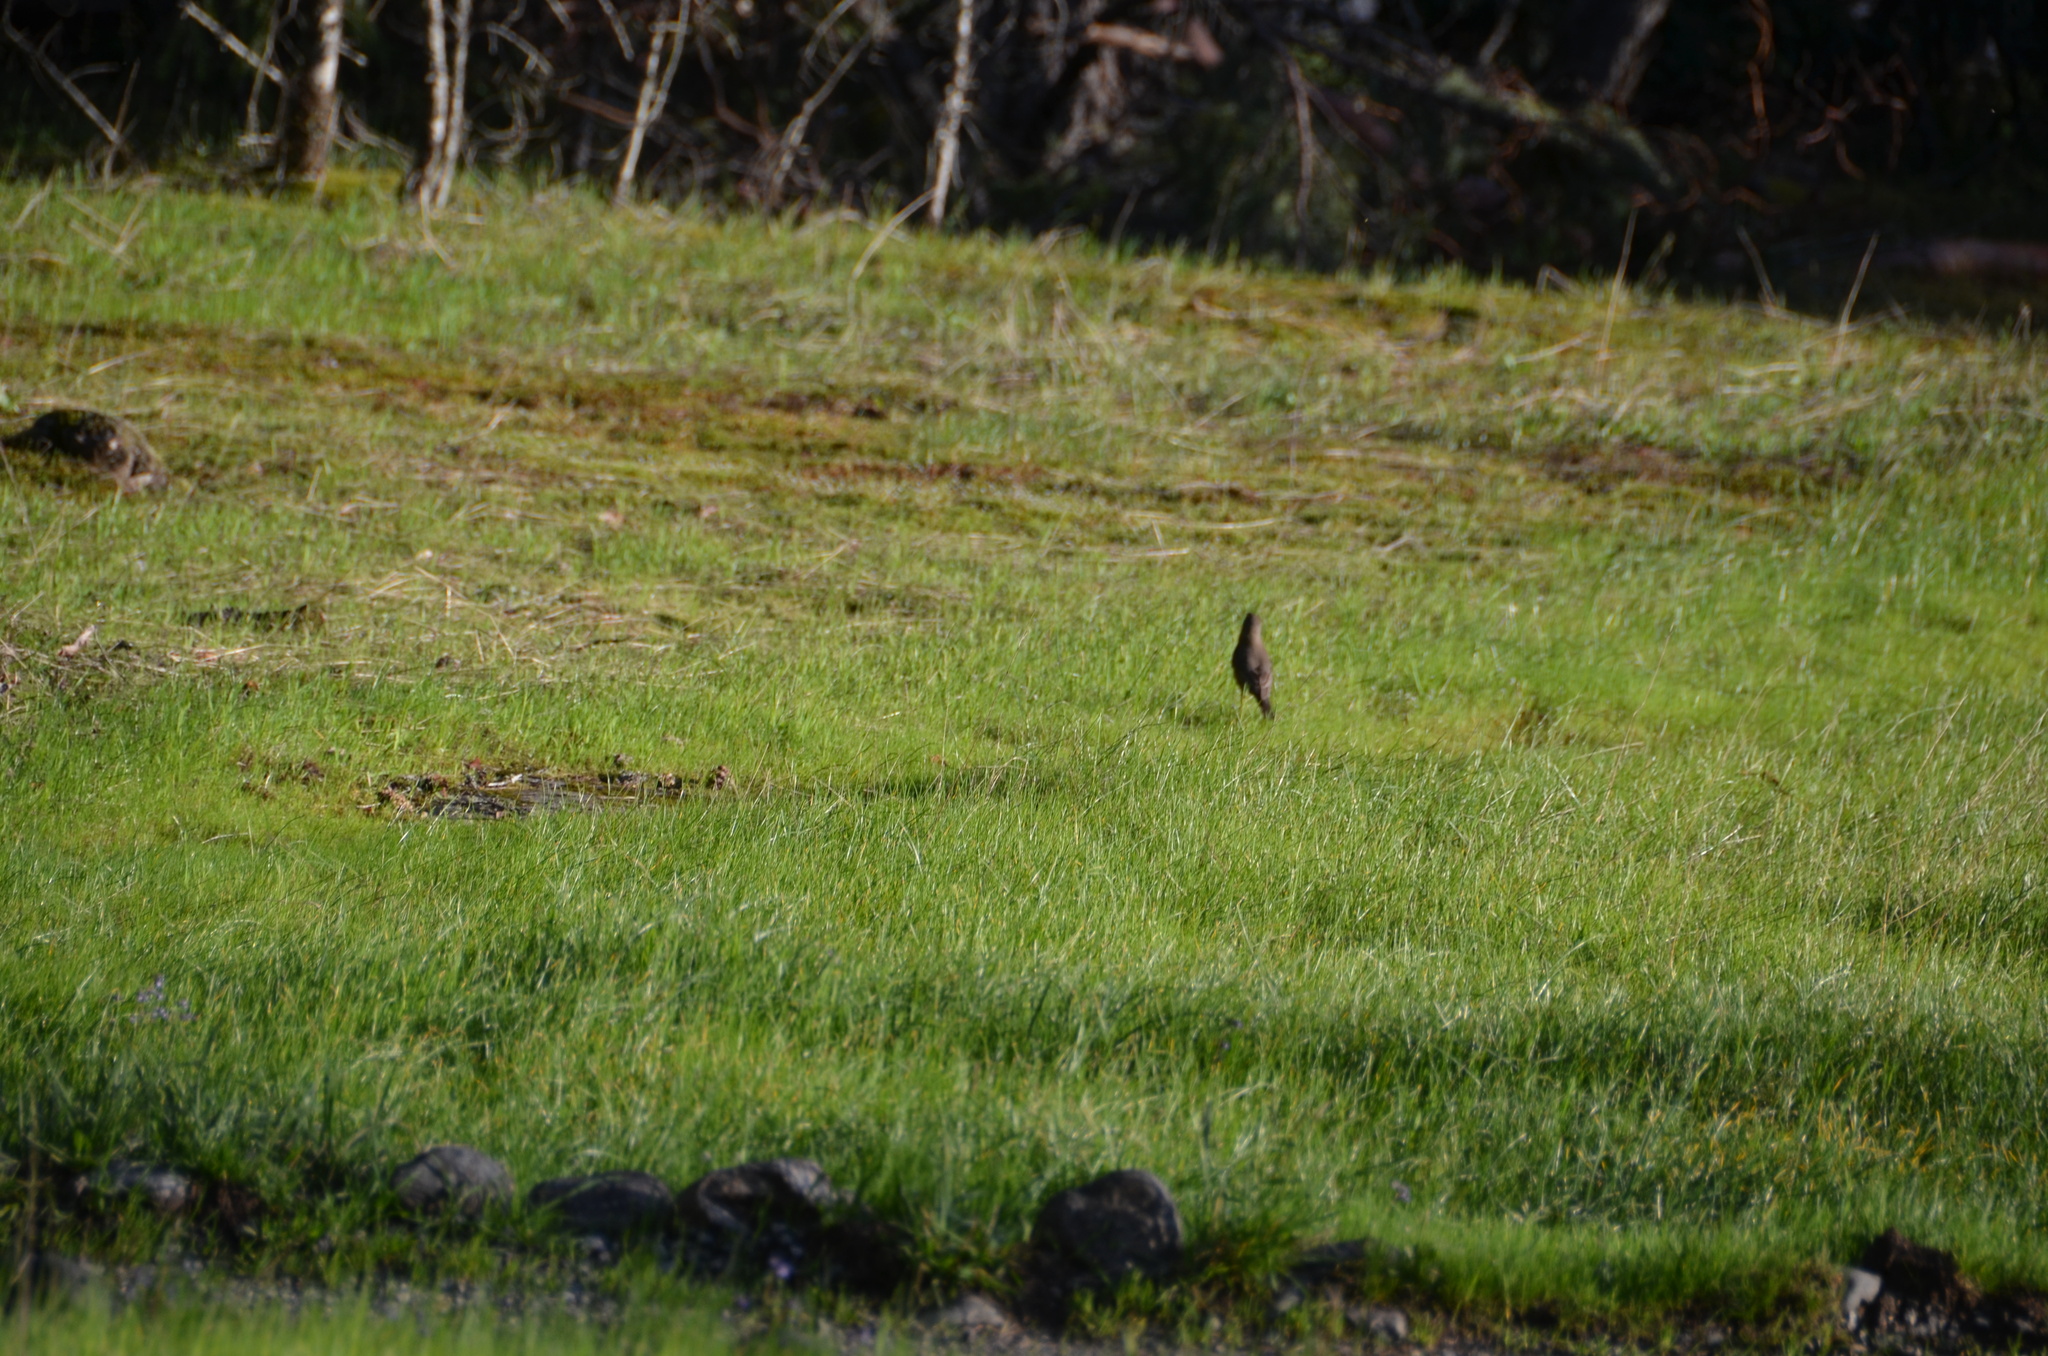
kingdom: Animalia
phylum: Chordata
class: Aves
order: Passeriformes
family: Turdidae
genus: Turdus
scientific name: Turdus migratorius
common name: American robin
